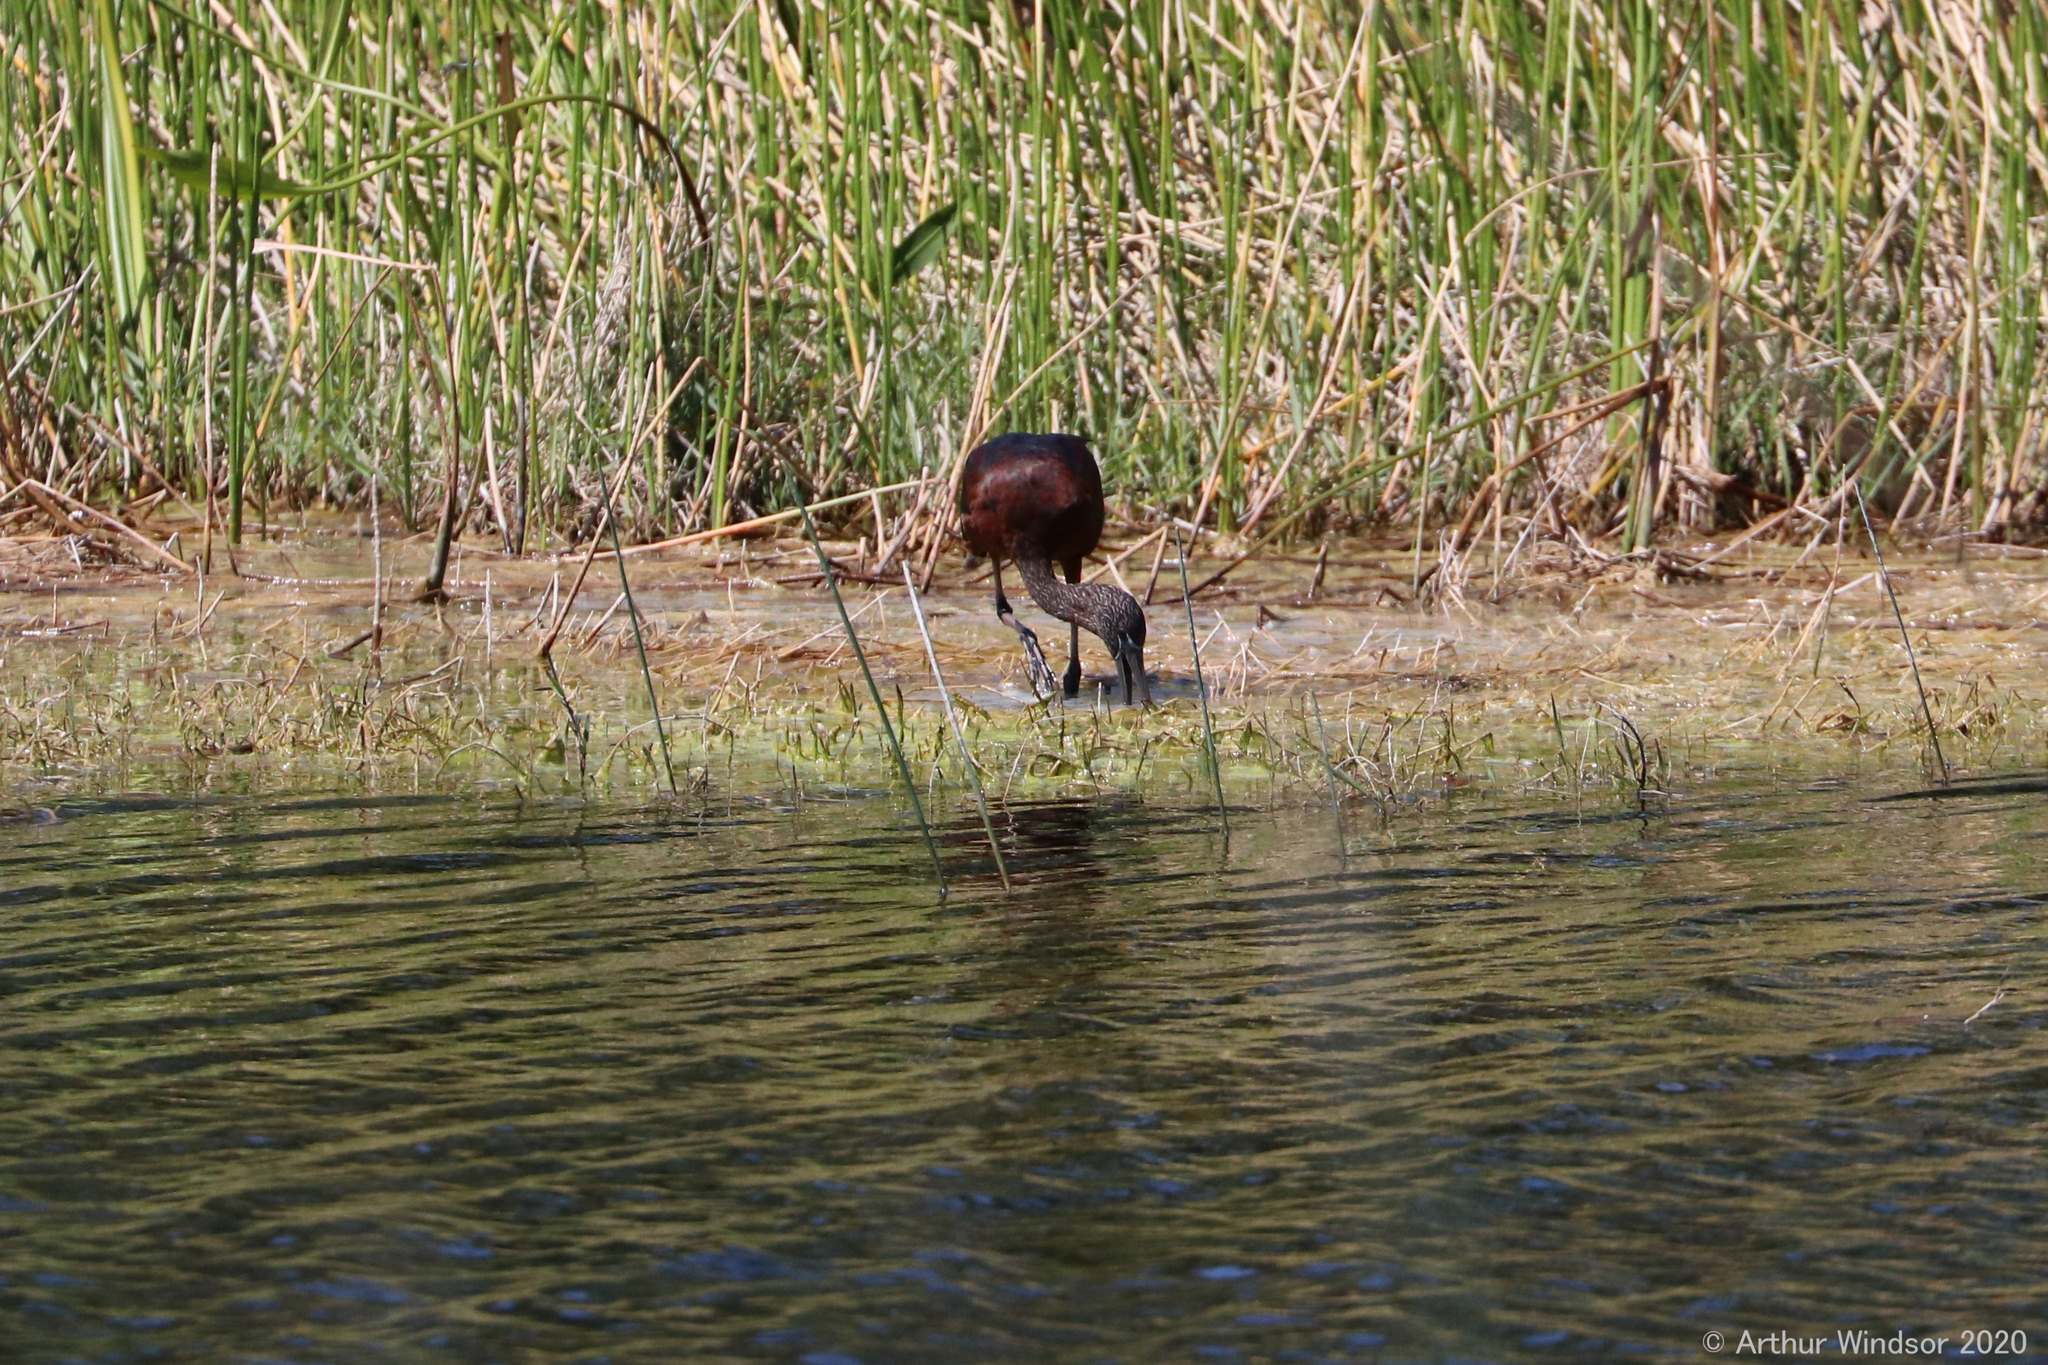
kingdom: Animalia
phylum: Chordata
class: Aves
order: Pelecaniformes
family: Threskiornithidae
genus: Plegadis
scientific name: Plegadis falcinellus
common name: Glossy ibis
